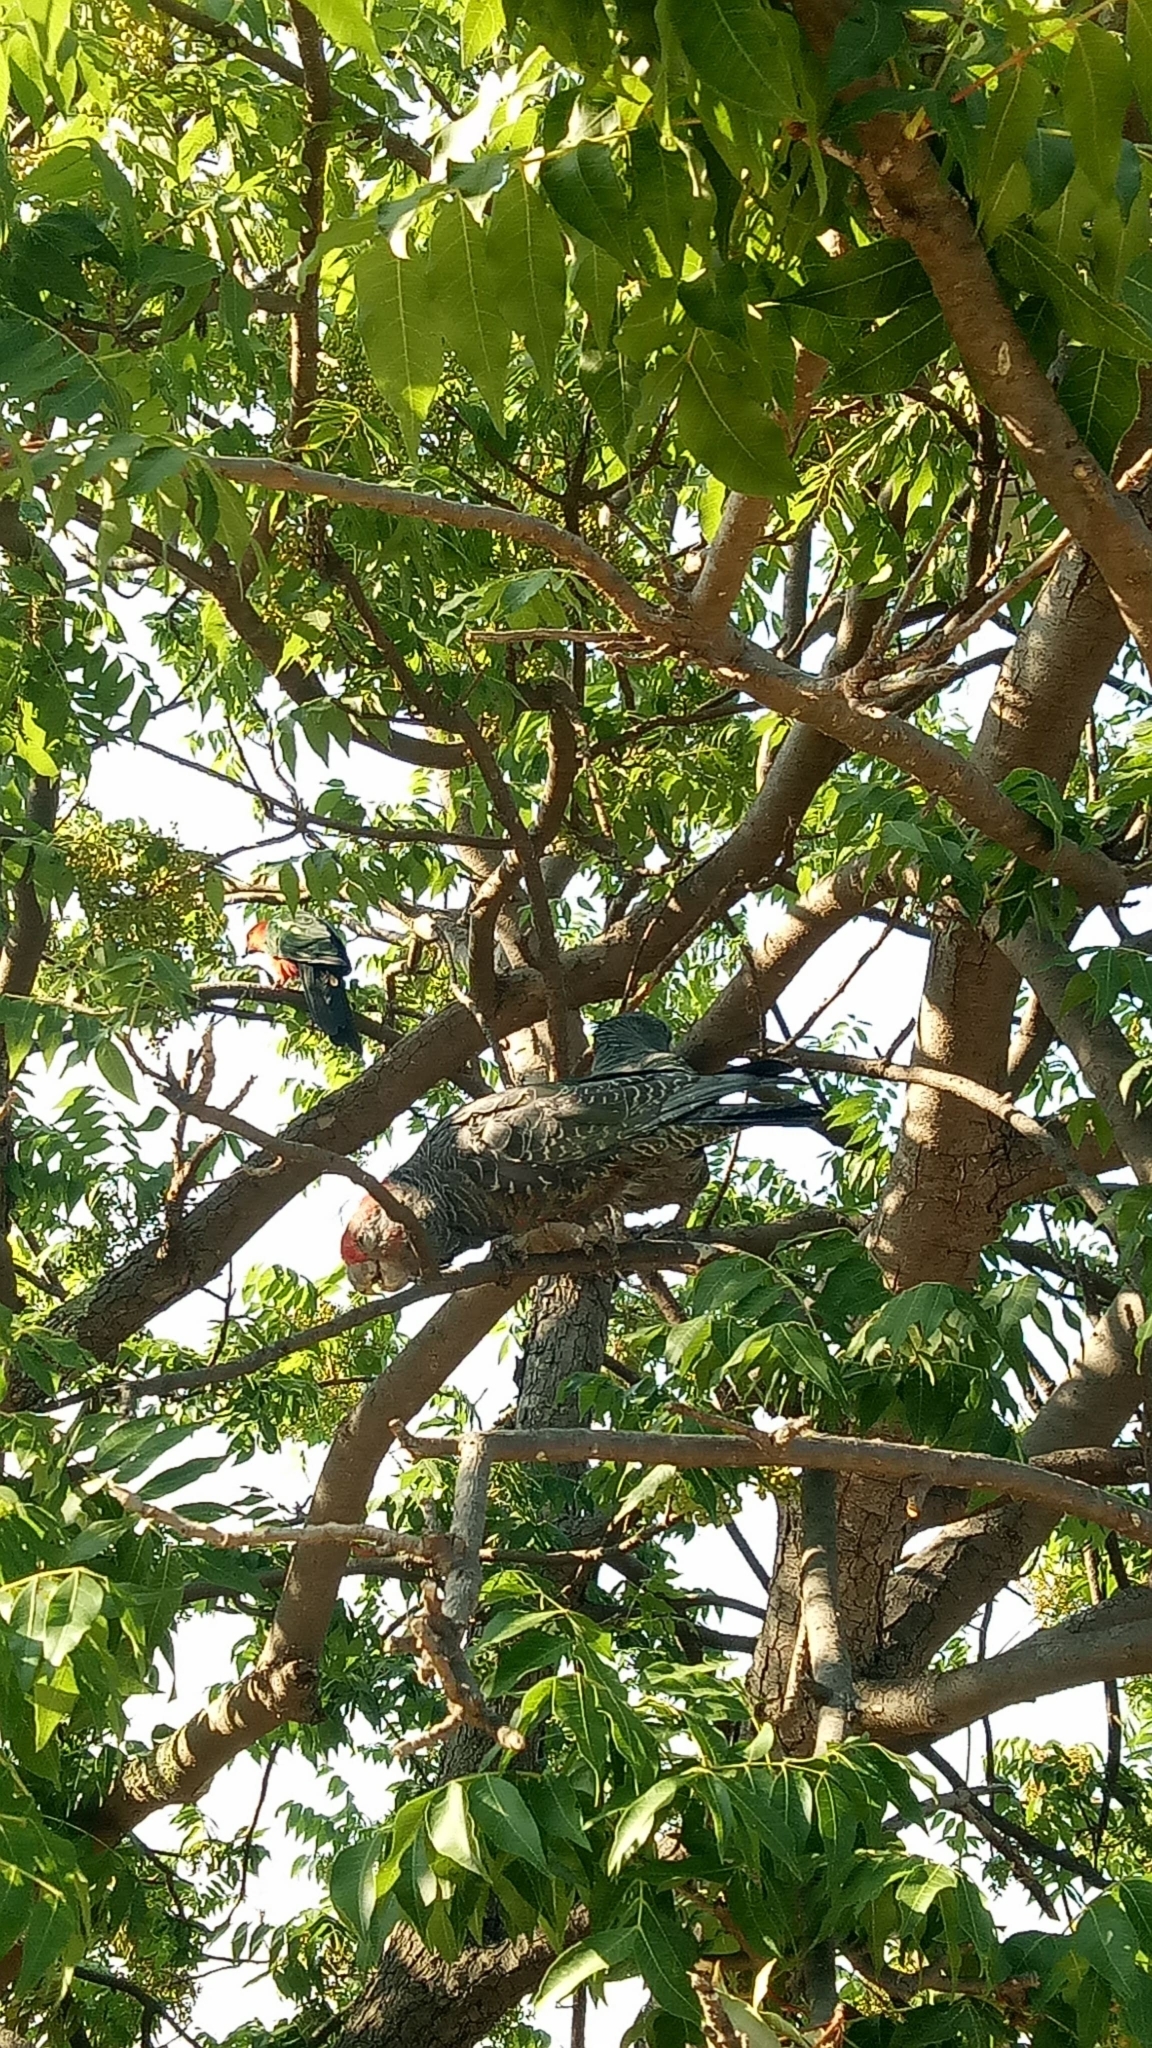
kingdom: Animalia
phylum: Chordata
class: Aves
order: Psittaciformes
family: Psittacidae
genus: Callocephalon
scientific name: Callocephalon fimbriatum
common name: Gang-gang cockatoo
